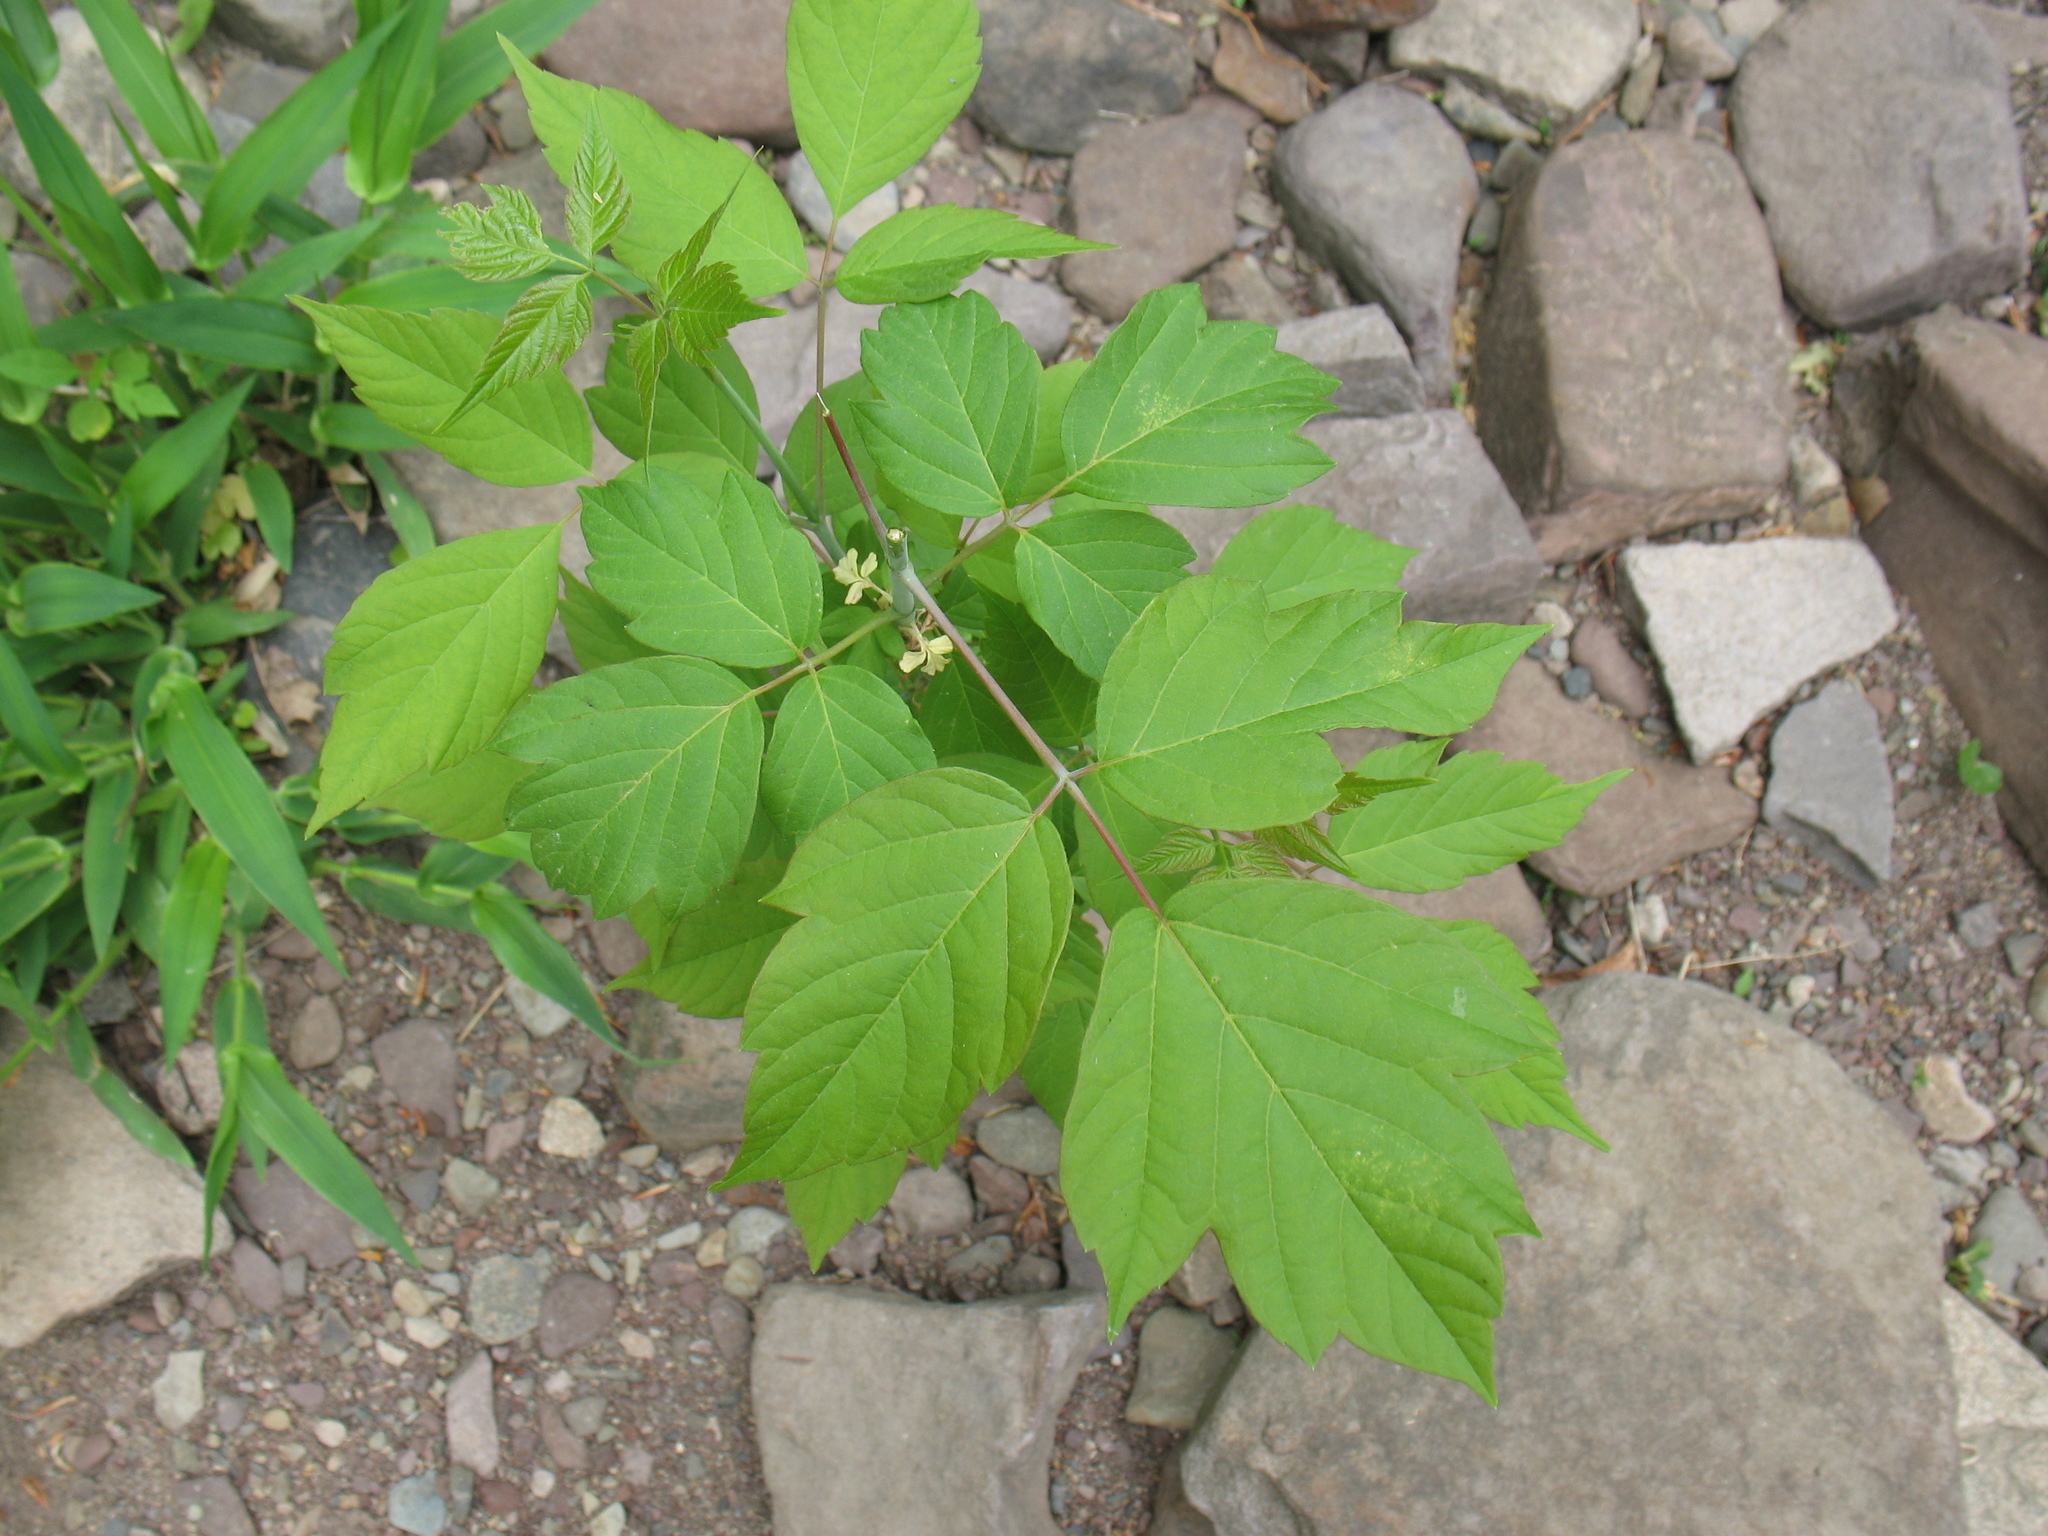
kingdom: Plantae
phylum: Tracheophyta
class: Magnoliopsida
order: Sapindales
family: Sapindaceae
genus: Acer
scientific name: Acer negundo
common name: Ashleaf maple
